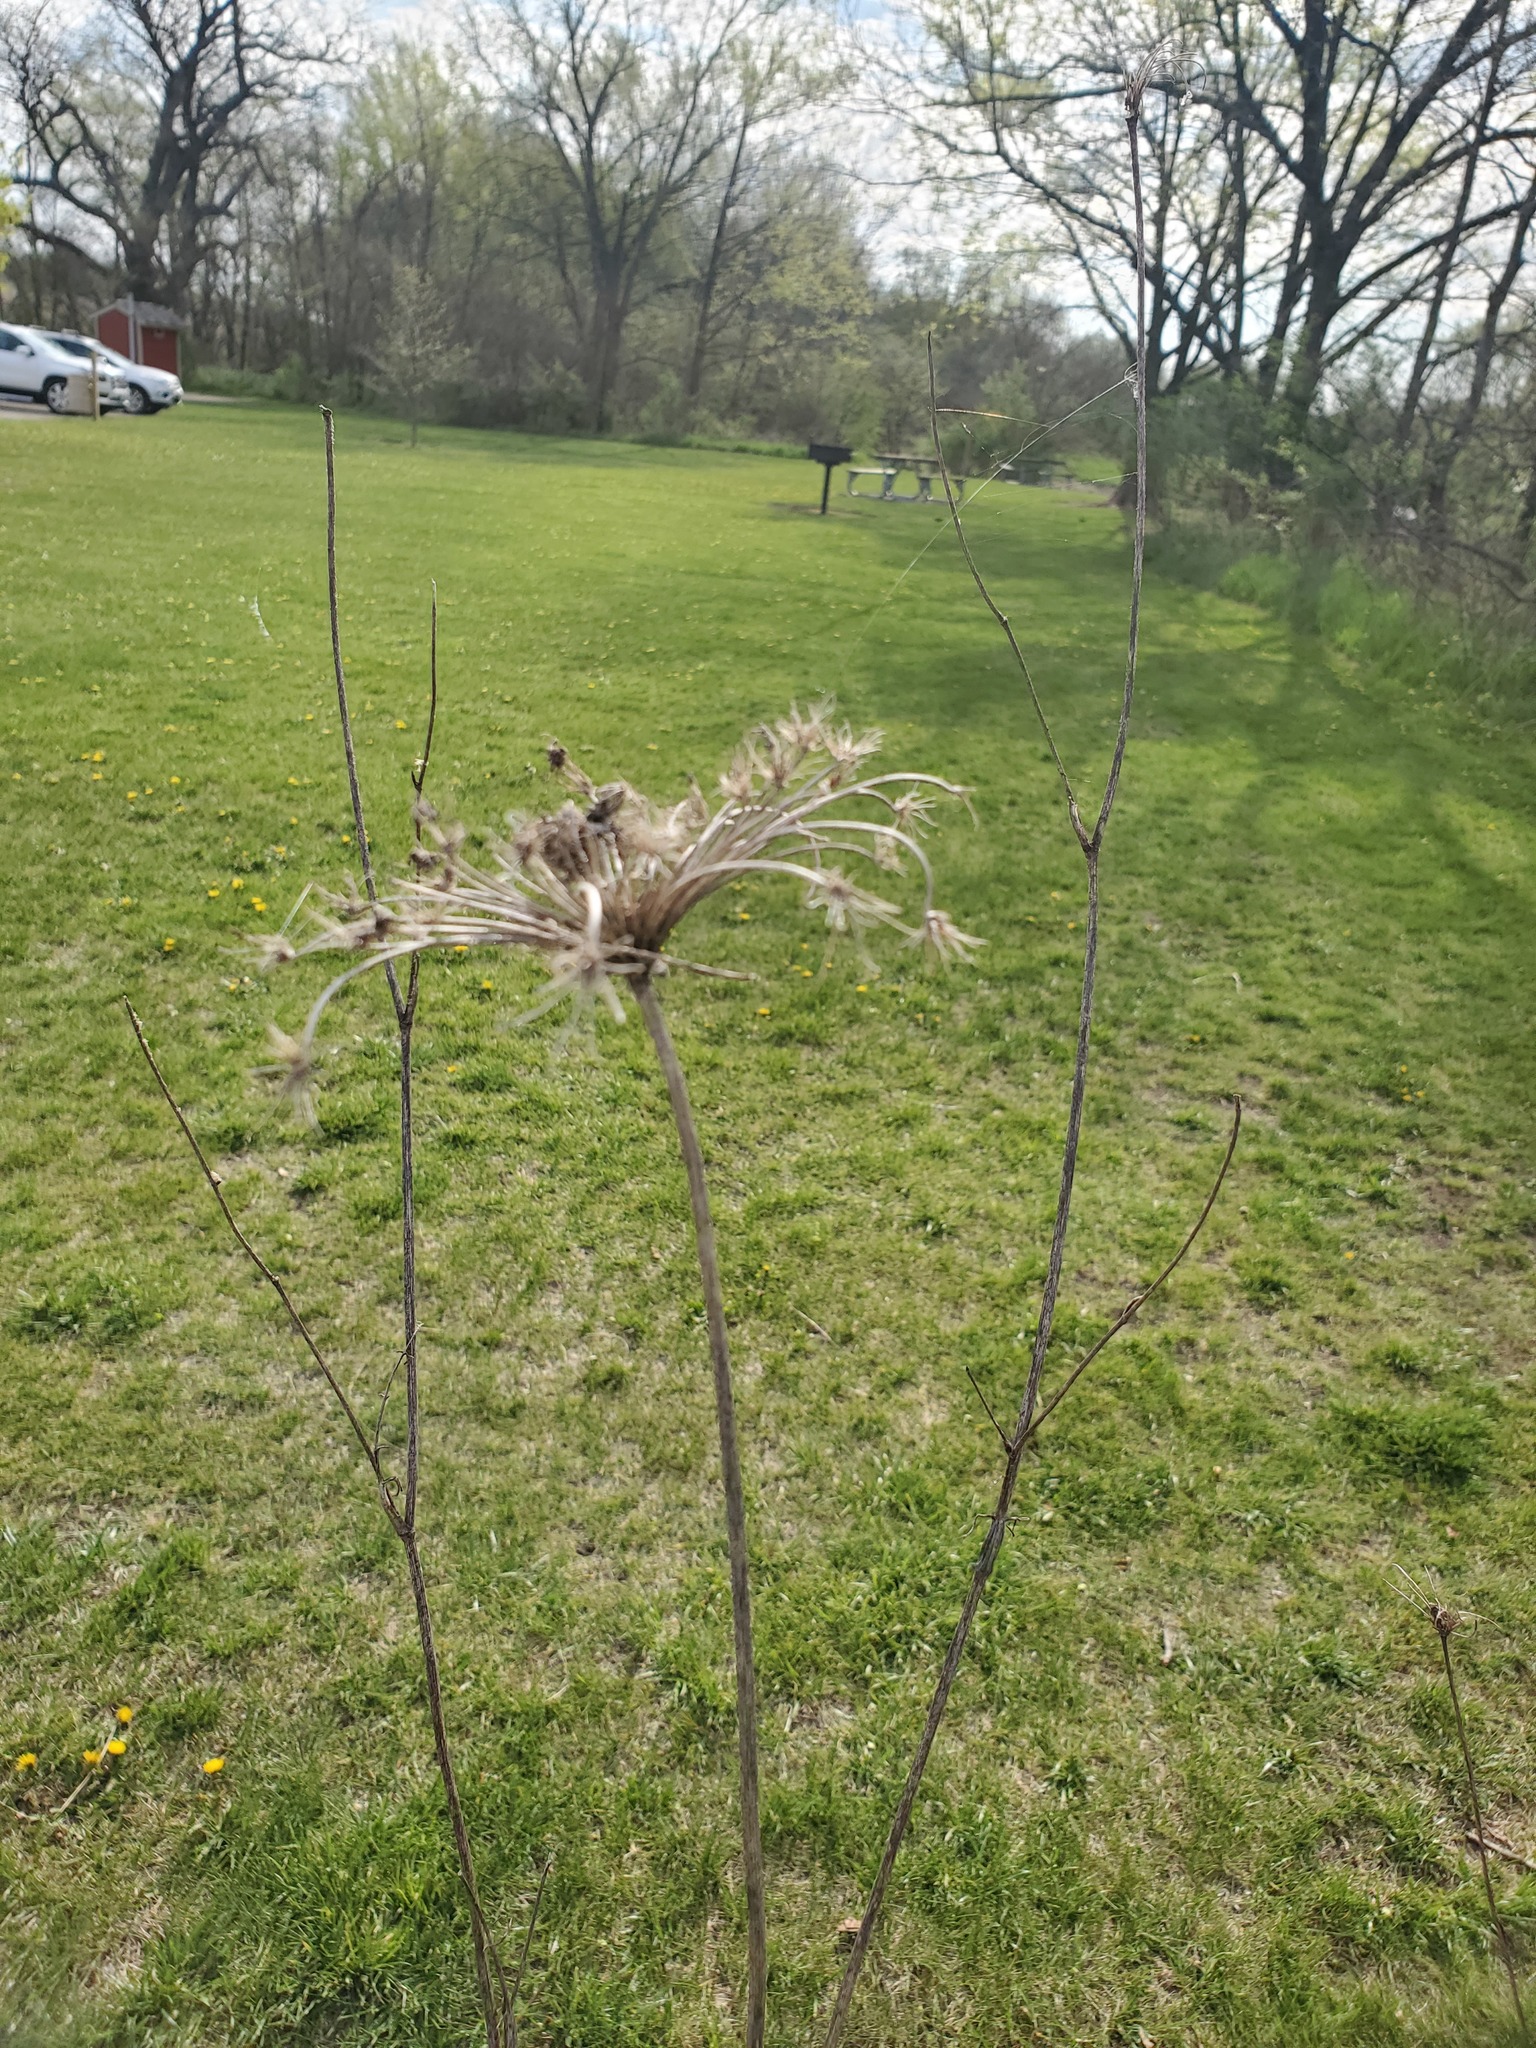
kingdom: Plantae
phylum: Tracheophyta
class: Magnoliopsida
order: Apiales
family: Apiaceae
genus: Daucus
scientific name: Daucus carota
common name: Wild carrot
